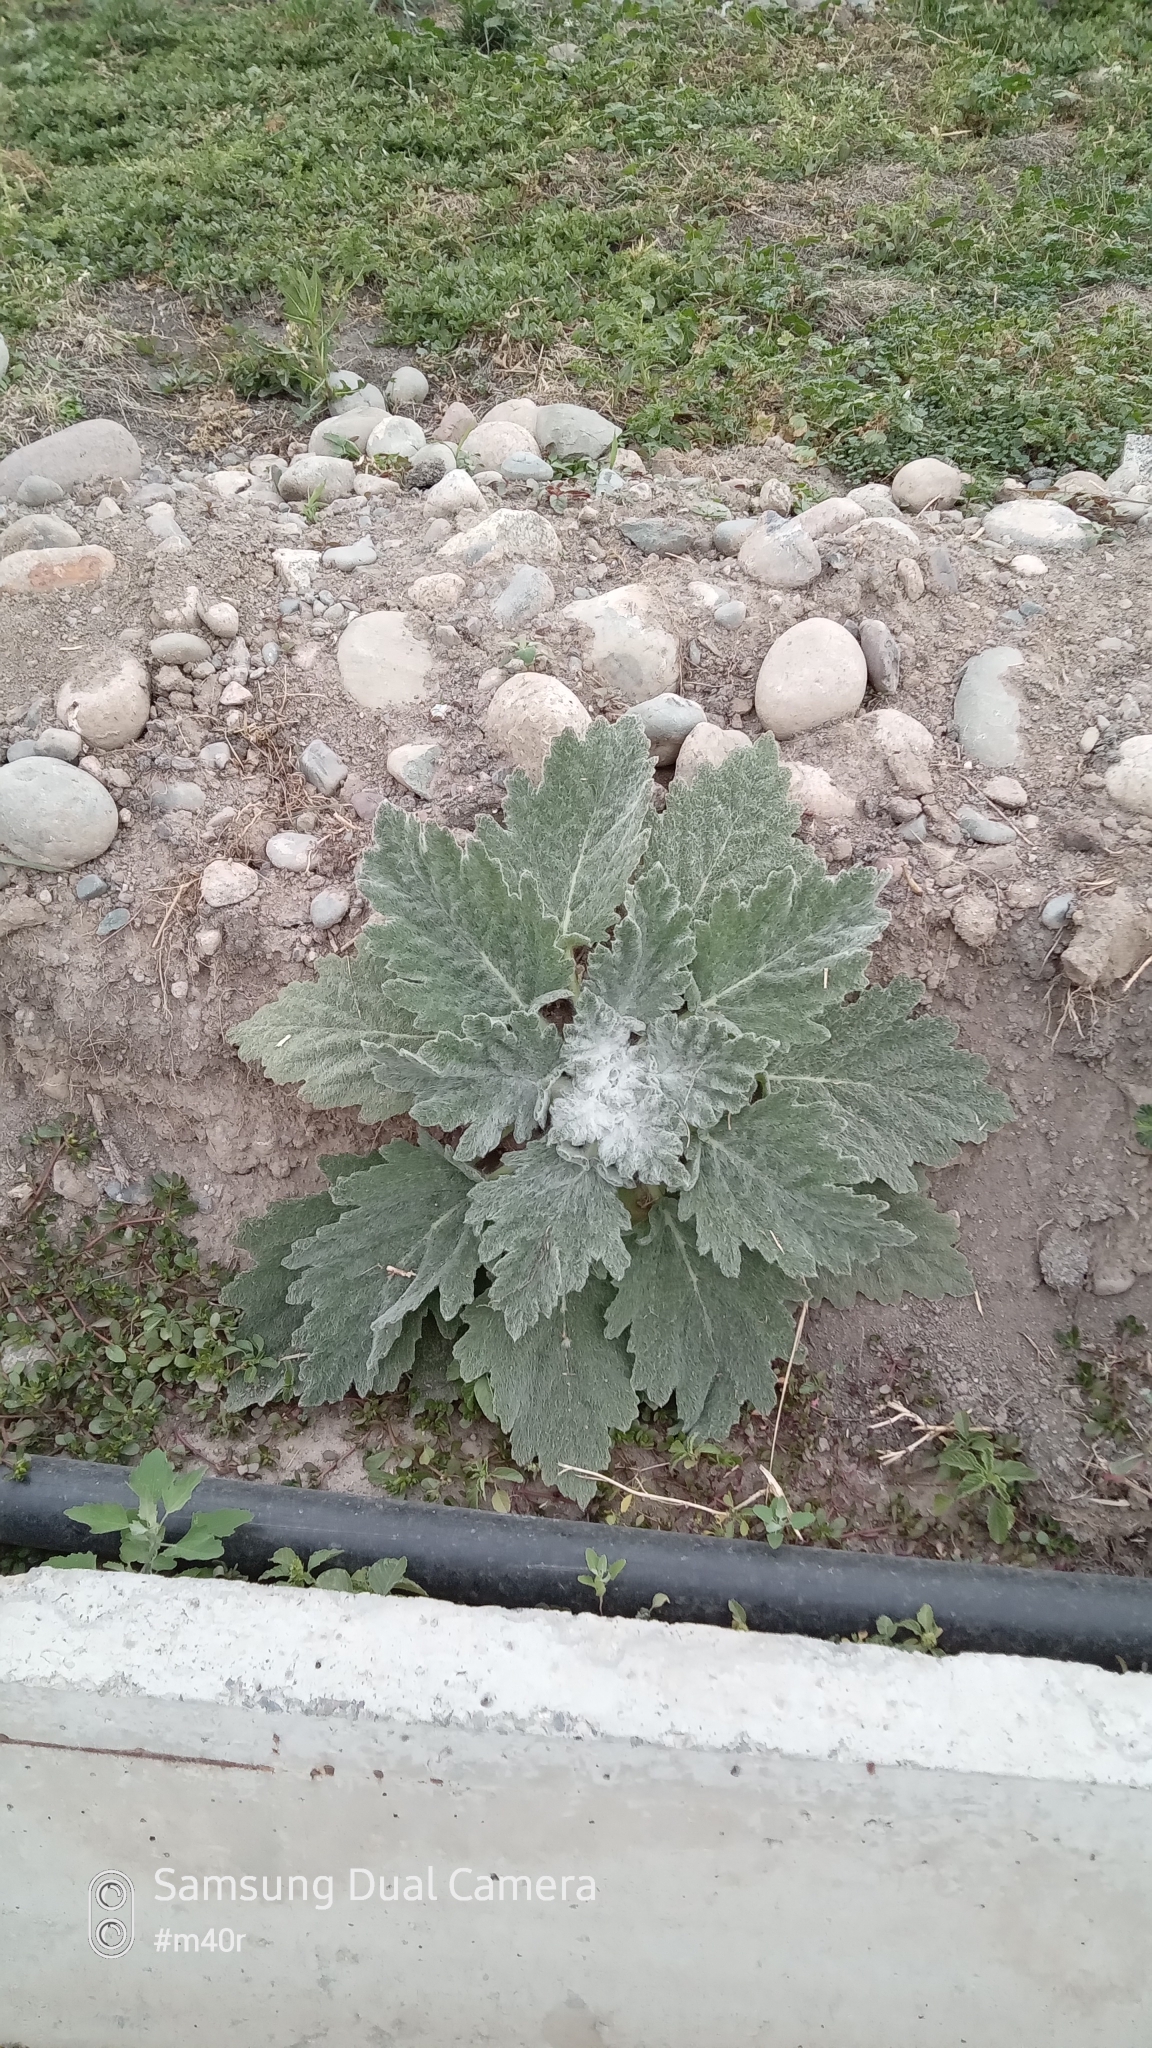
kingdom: Plantae
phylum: Tracheophyta
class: Magnoliopsida
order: Lamiales
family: Lamiaceae
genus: Salvia
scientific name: Salvia aethiopis
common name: Mediterranean sage
